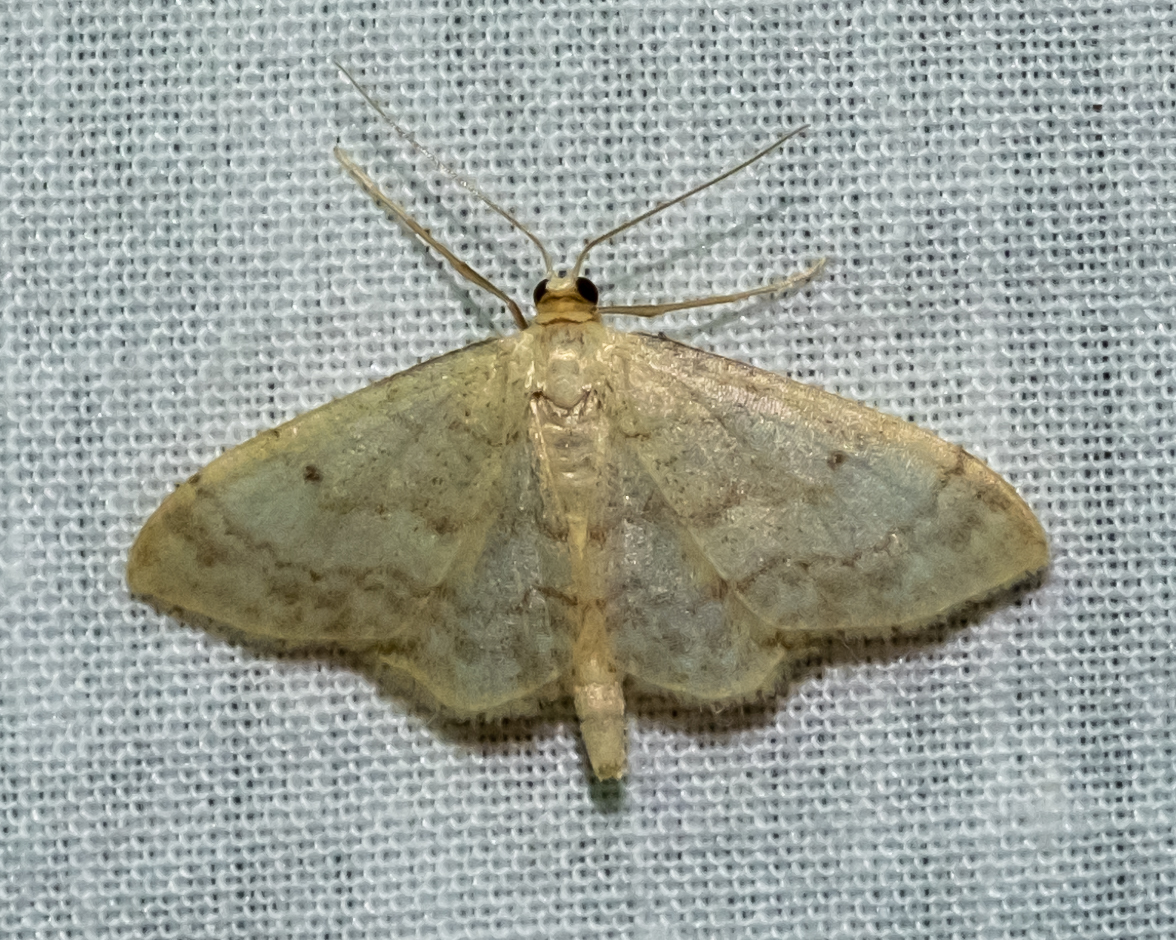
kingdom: Animalia
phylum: Arthropoda
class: Insecta
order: Lepidoptera
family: Geometridae
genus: Idaea
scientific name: Idaea biselata
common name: Small fan-footed wave
